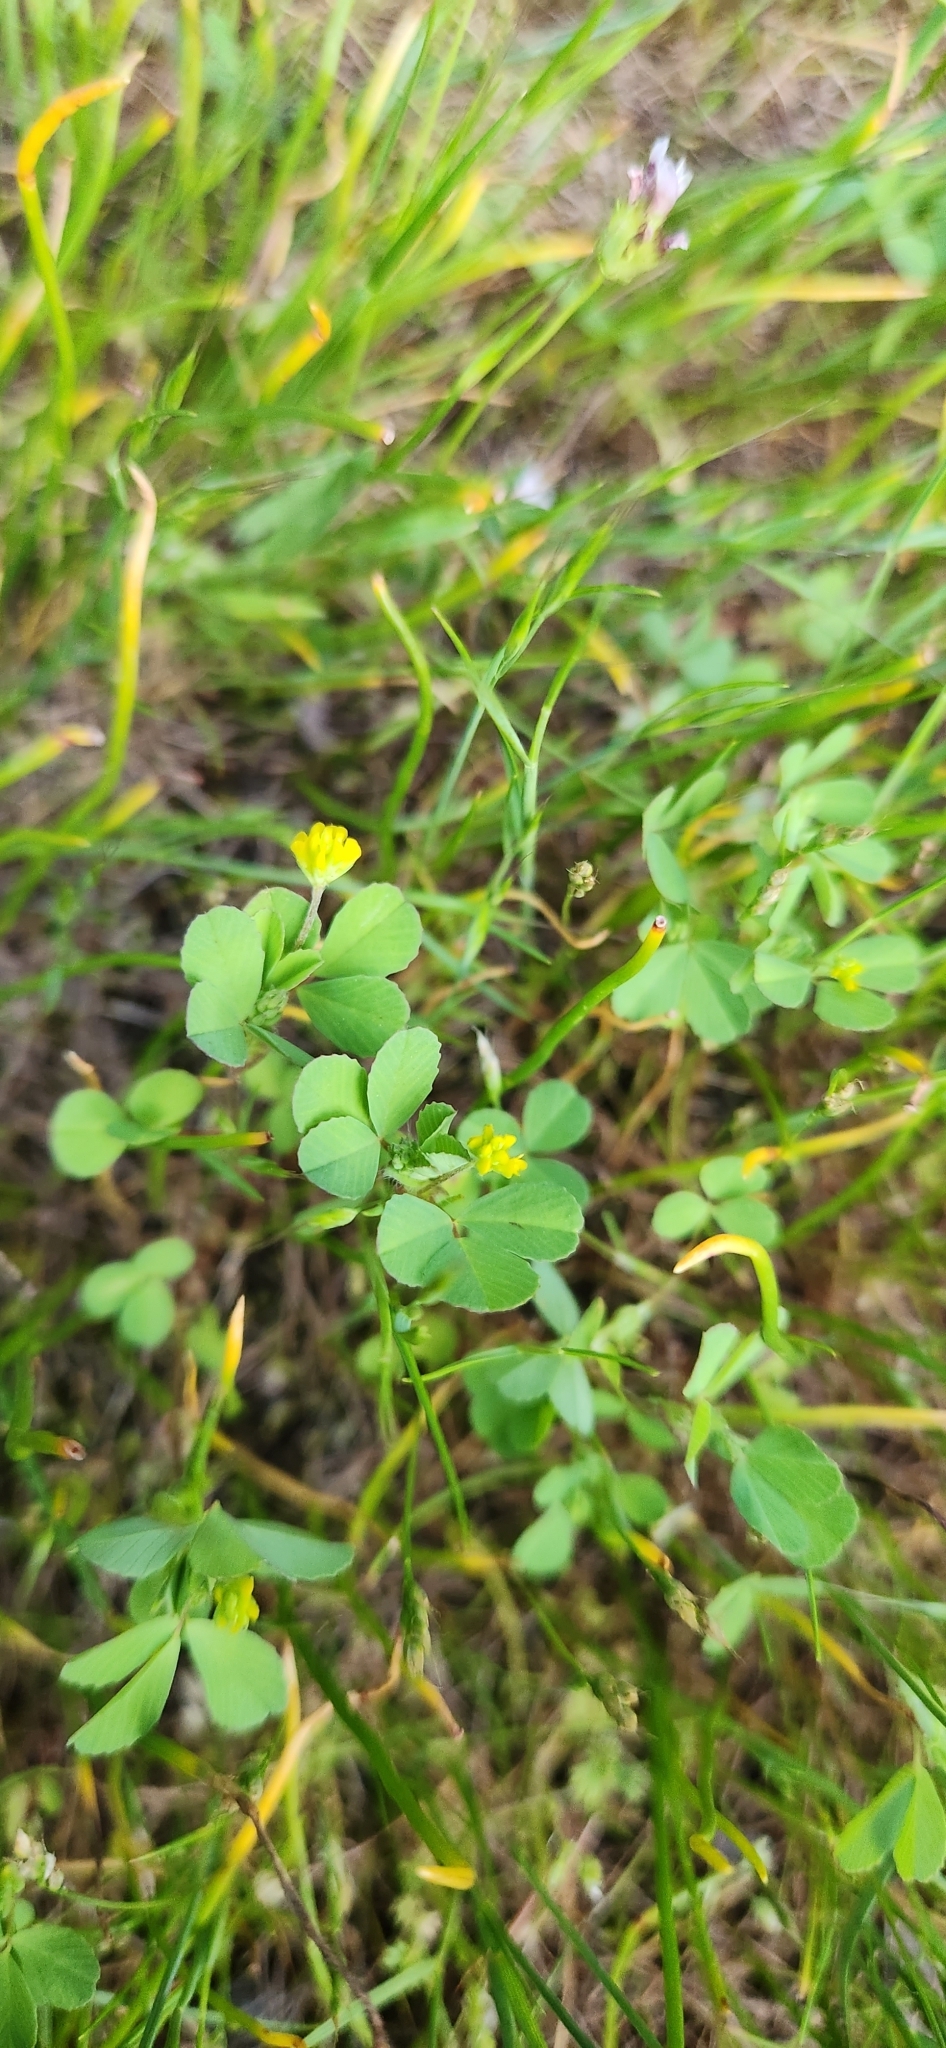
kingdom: Plantae
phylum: Tracheophyta
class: Magnoliopsida
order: Fabales
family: Fabaceae
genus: Trifolium
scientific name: Trifolium dubium
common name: Suckling clover
